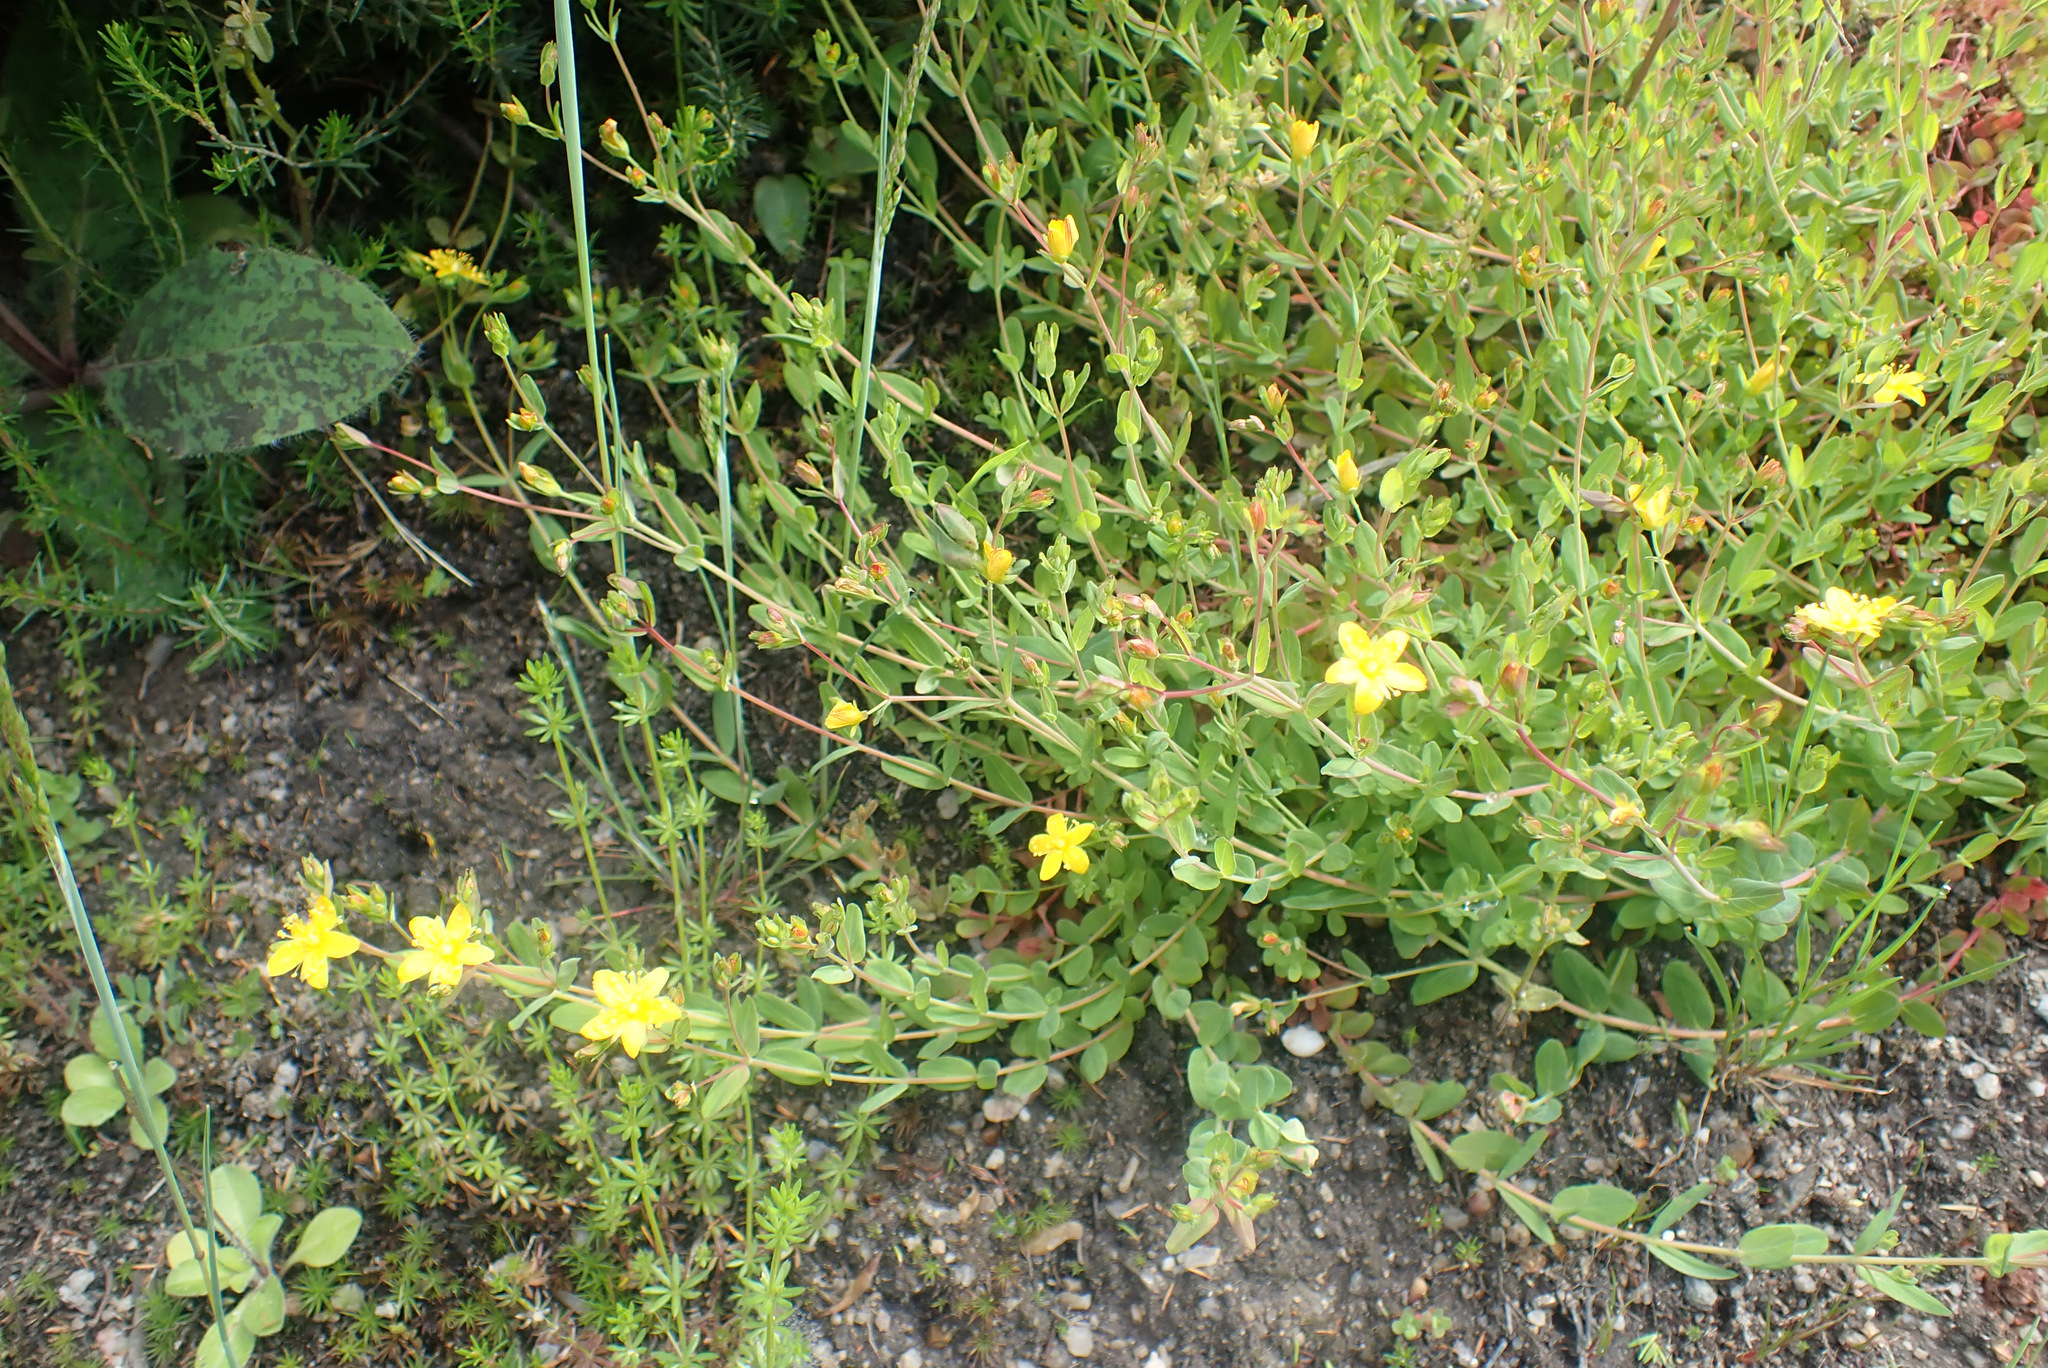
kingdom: Plantae
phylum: Tracheophyta
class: Magnoliopsida
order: Malpighiales
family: Hypericaceae
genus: Hypericum
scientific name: Hypericum humifusum
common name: Trailing st. john's-wort
